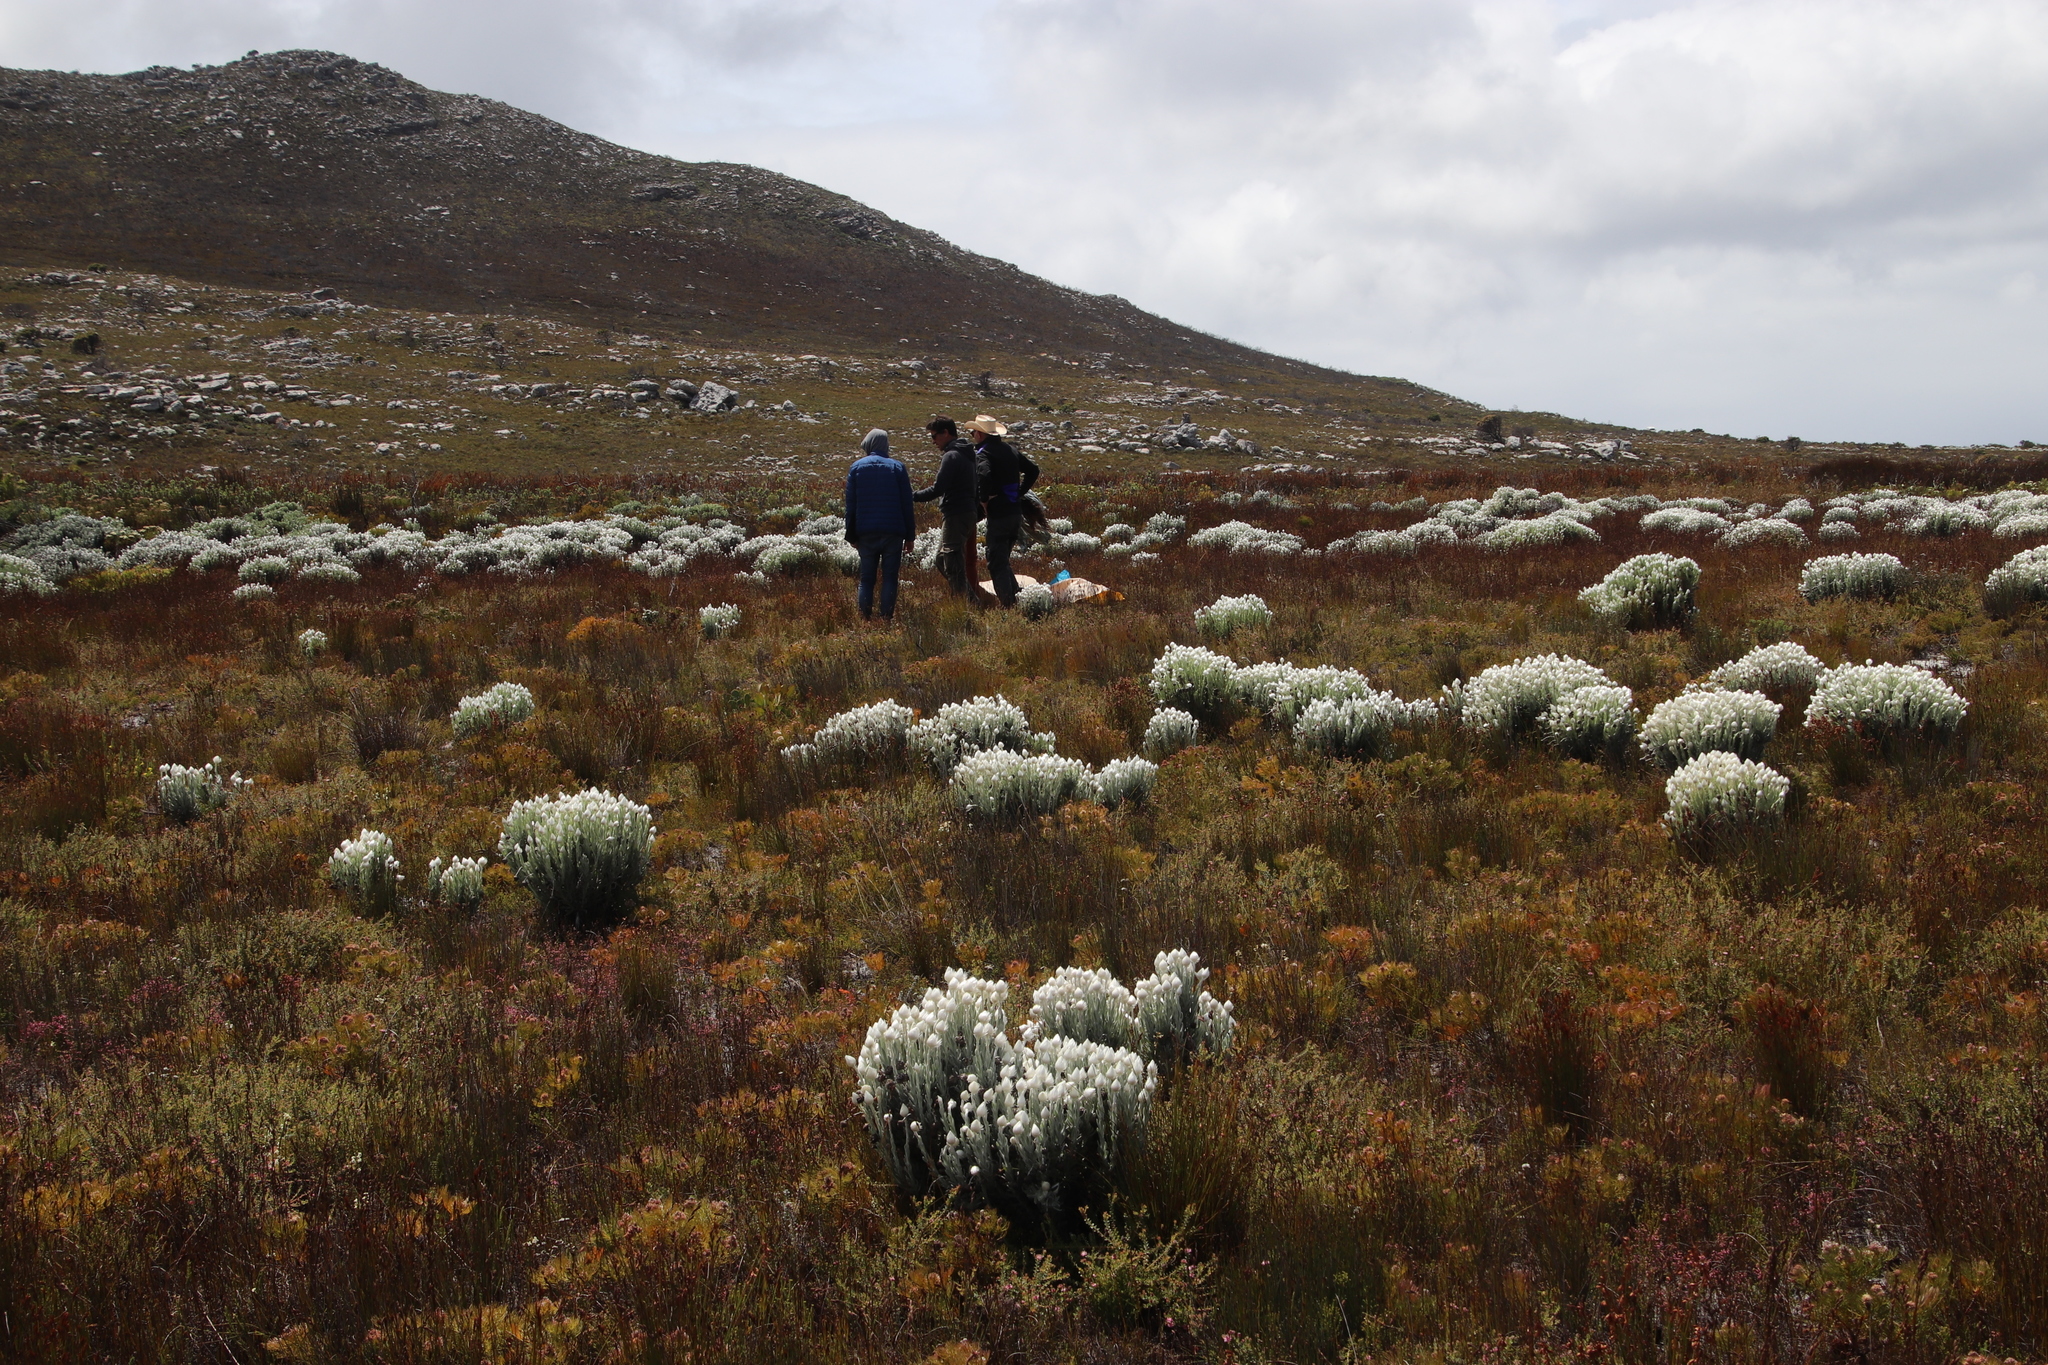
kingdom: Plantae
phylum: Tracheophyta
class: Magnoliopsida
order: Asterales
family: Asteraceae
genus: Syncarpha
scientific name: Syncarpha vestita
